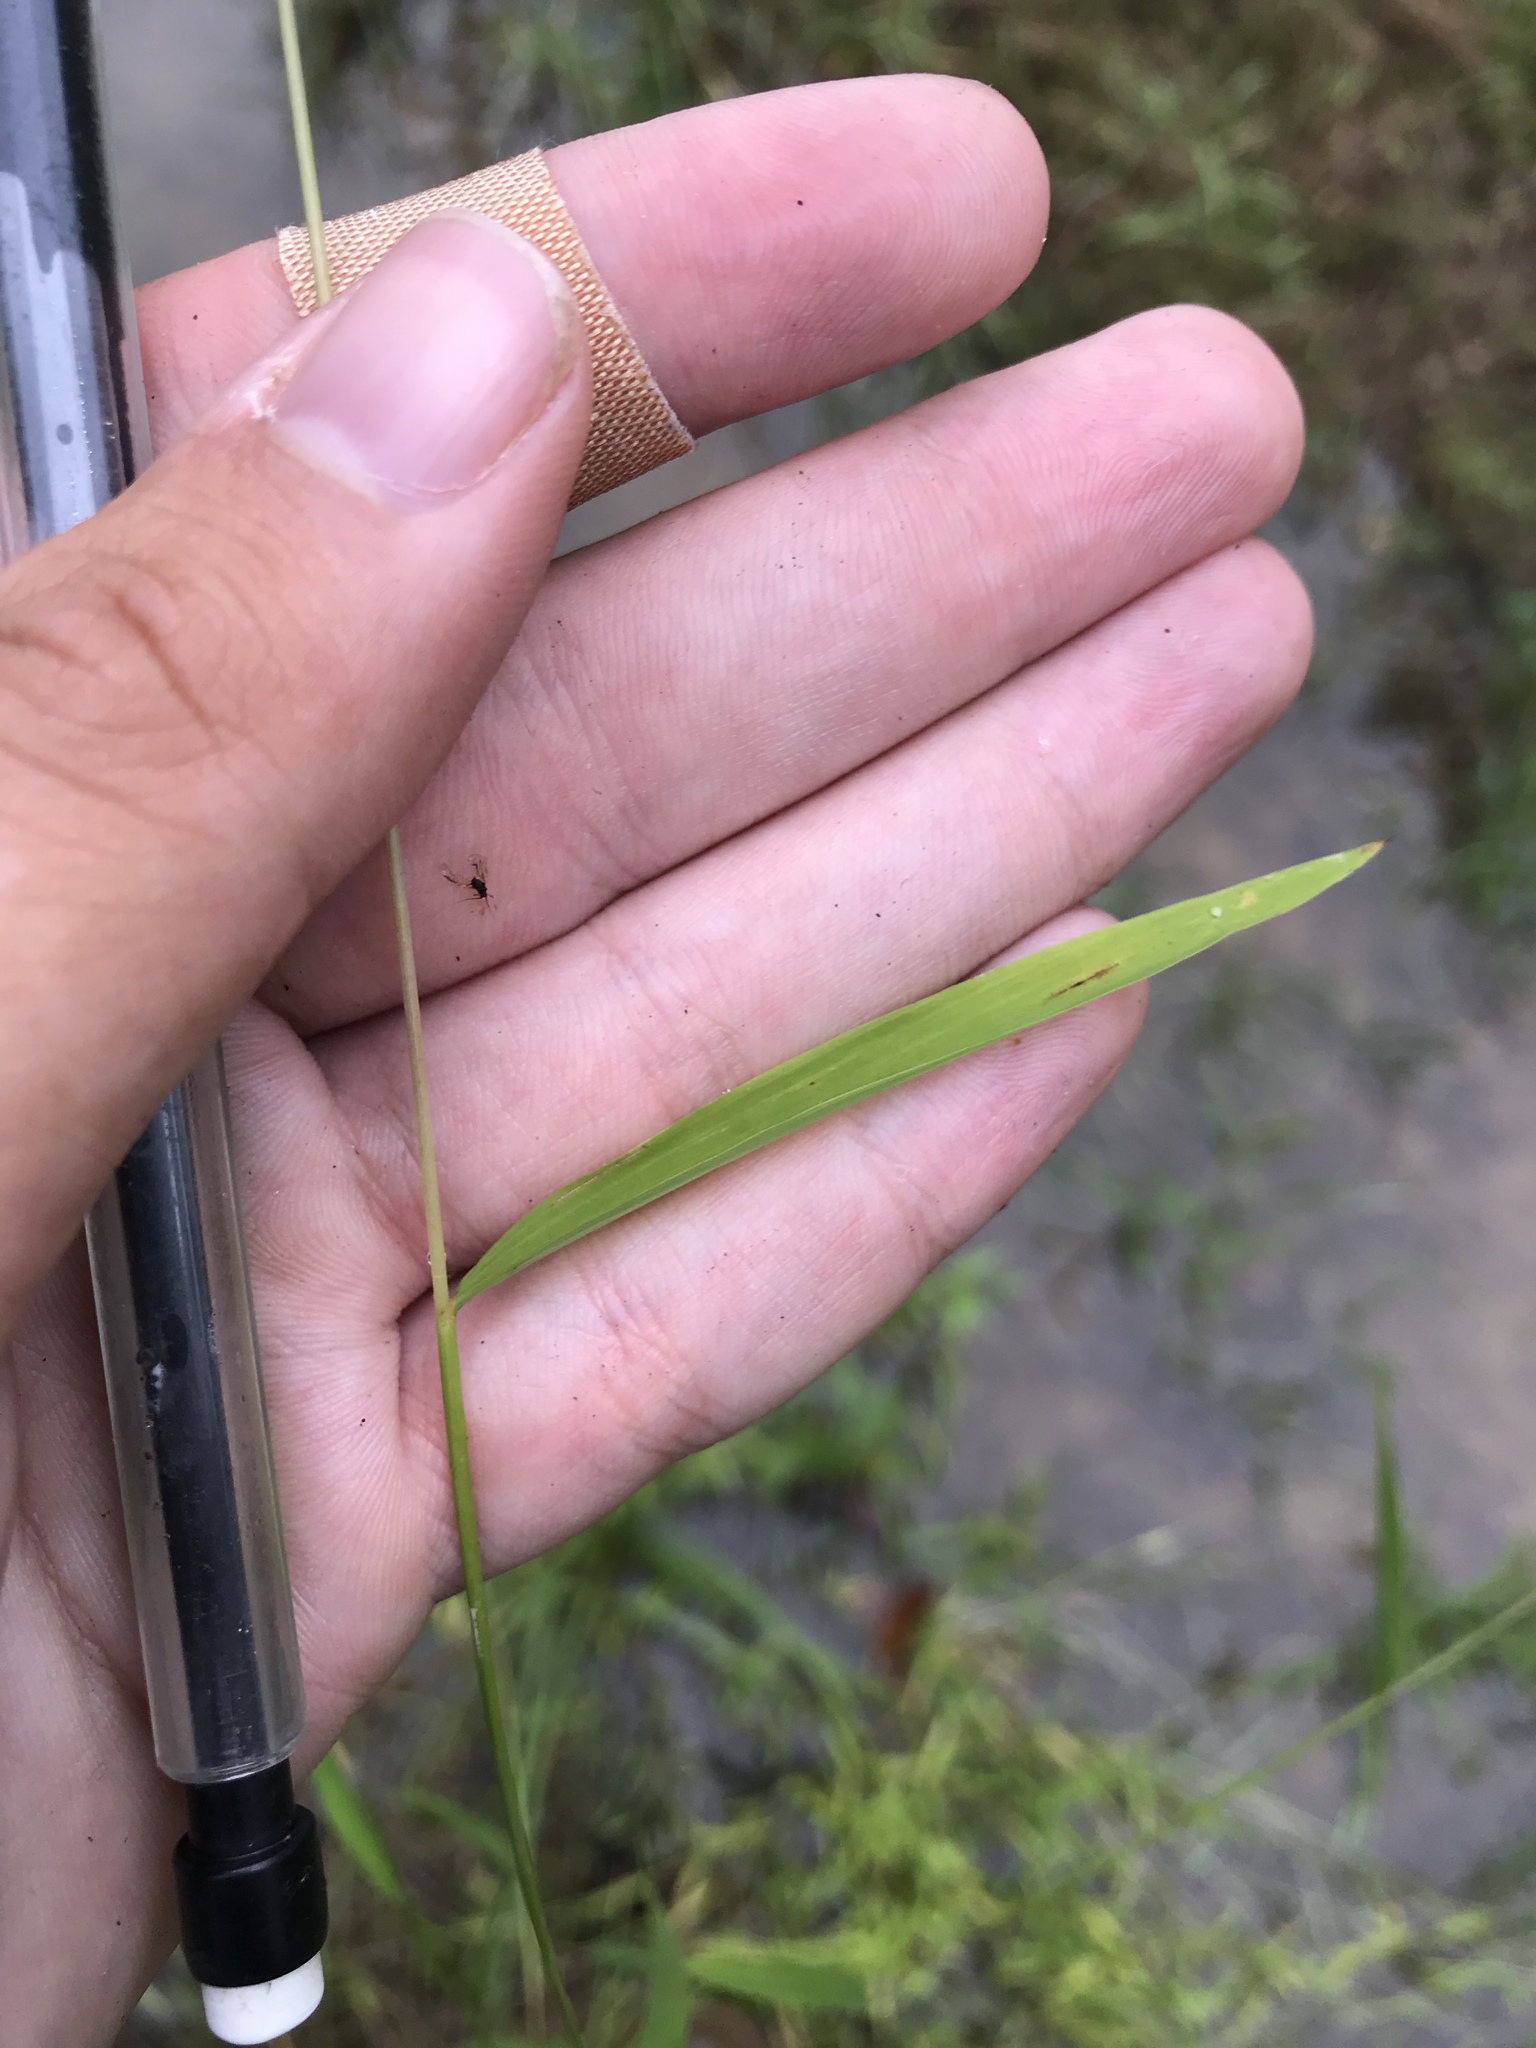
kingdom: Plantae
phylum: Tracheophyta
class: Liliopsida
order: Poales
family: Poaceae
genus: Leersia
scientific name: Leersia oryzoides
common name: Cut-grass
